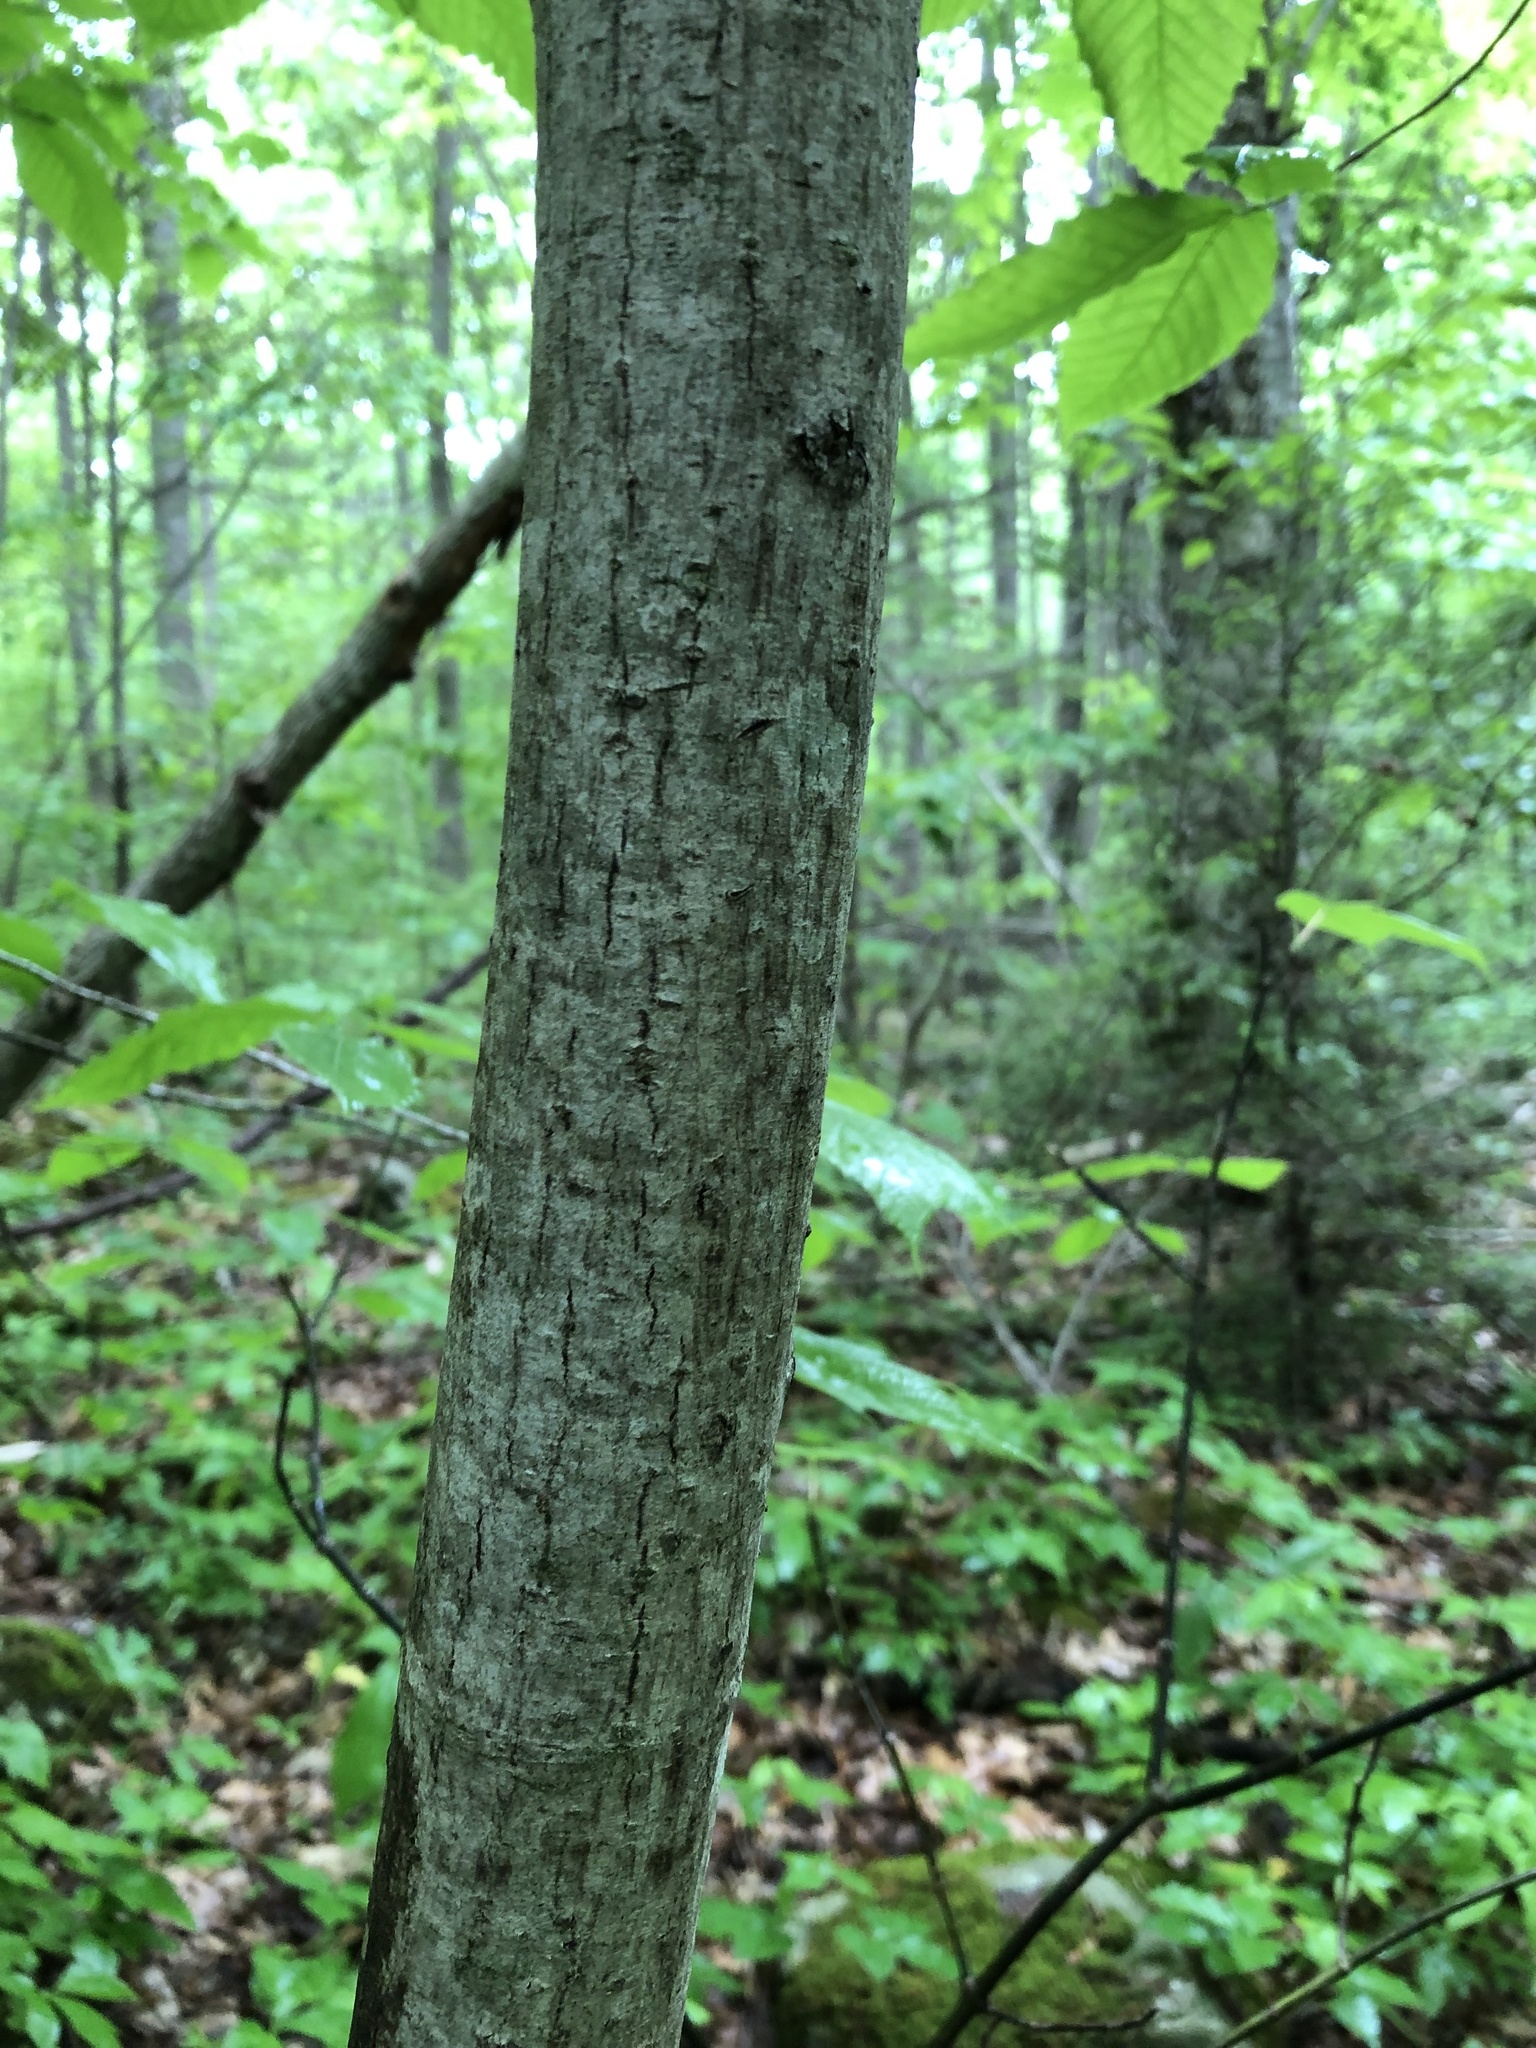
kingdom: Plantae
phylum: Tracheophyta
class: Magnoliopsida
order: Sapindales
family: Sapindaceae
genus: Acer
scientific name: Acer pensylvanicum
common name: Moosewood
